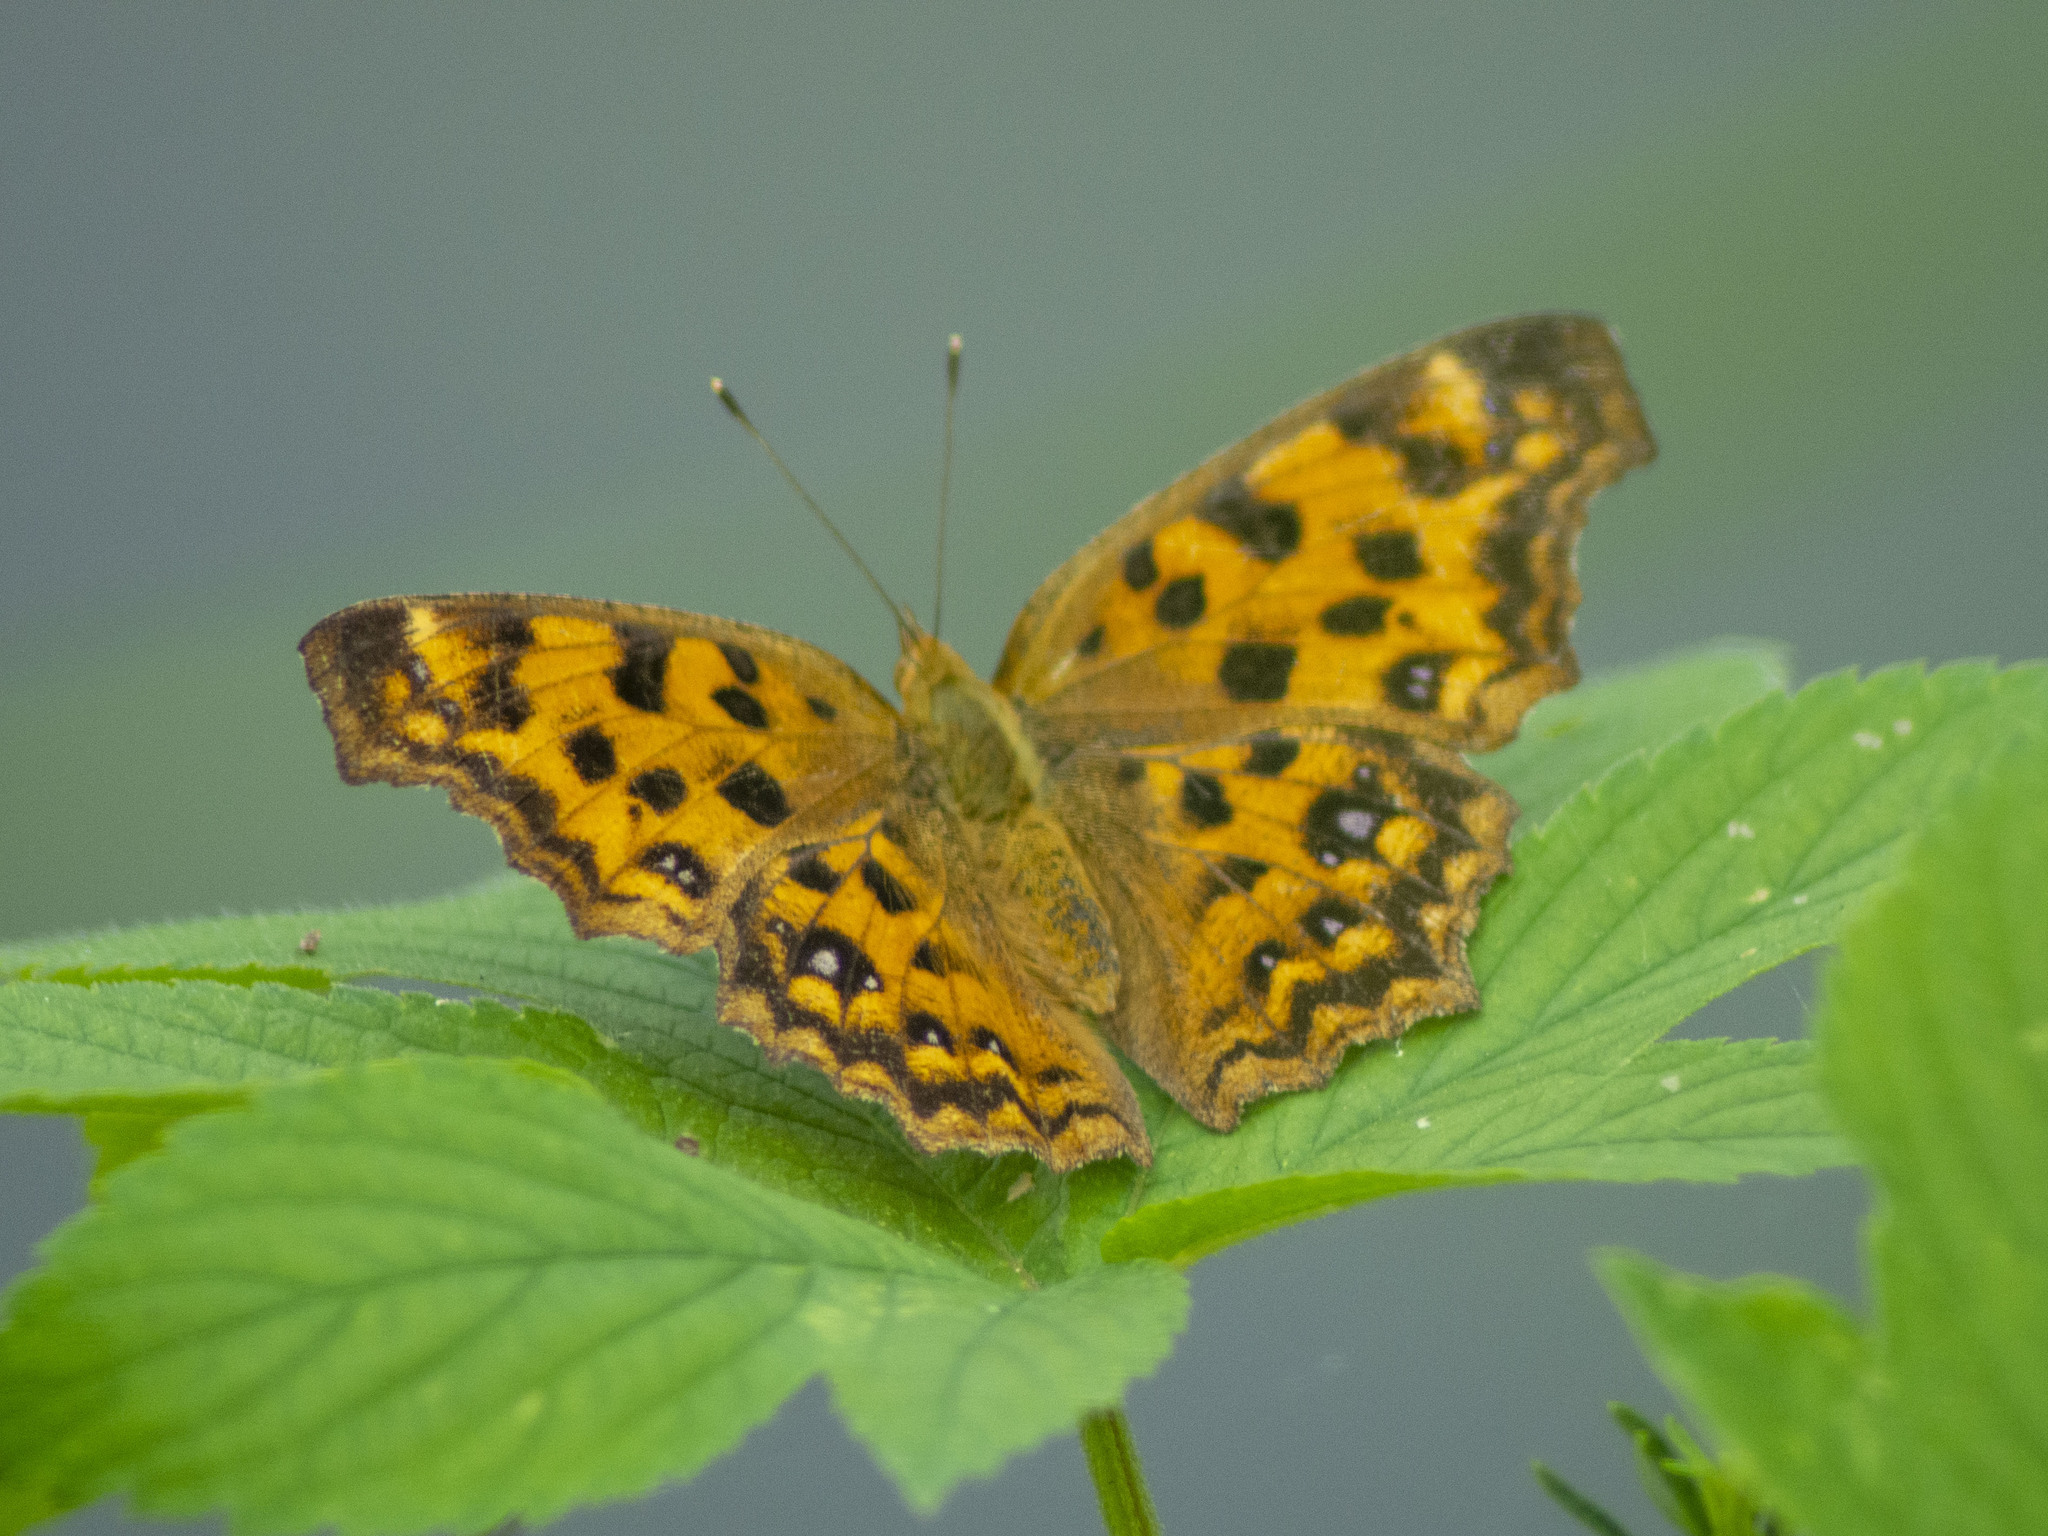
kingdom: Animalia
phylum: Arthropoda
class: Insecta
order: Lepidoptera
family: Nymphalidae
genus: Polygonia
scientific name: Polygonia c-aureum
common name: Asian comma
